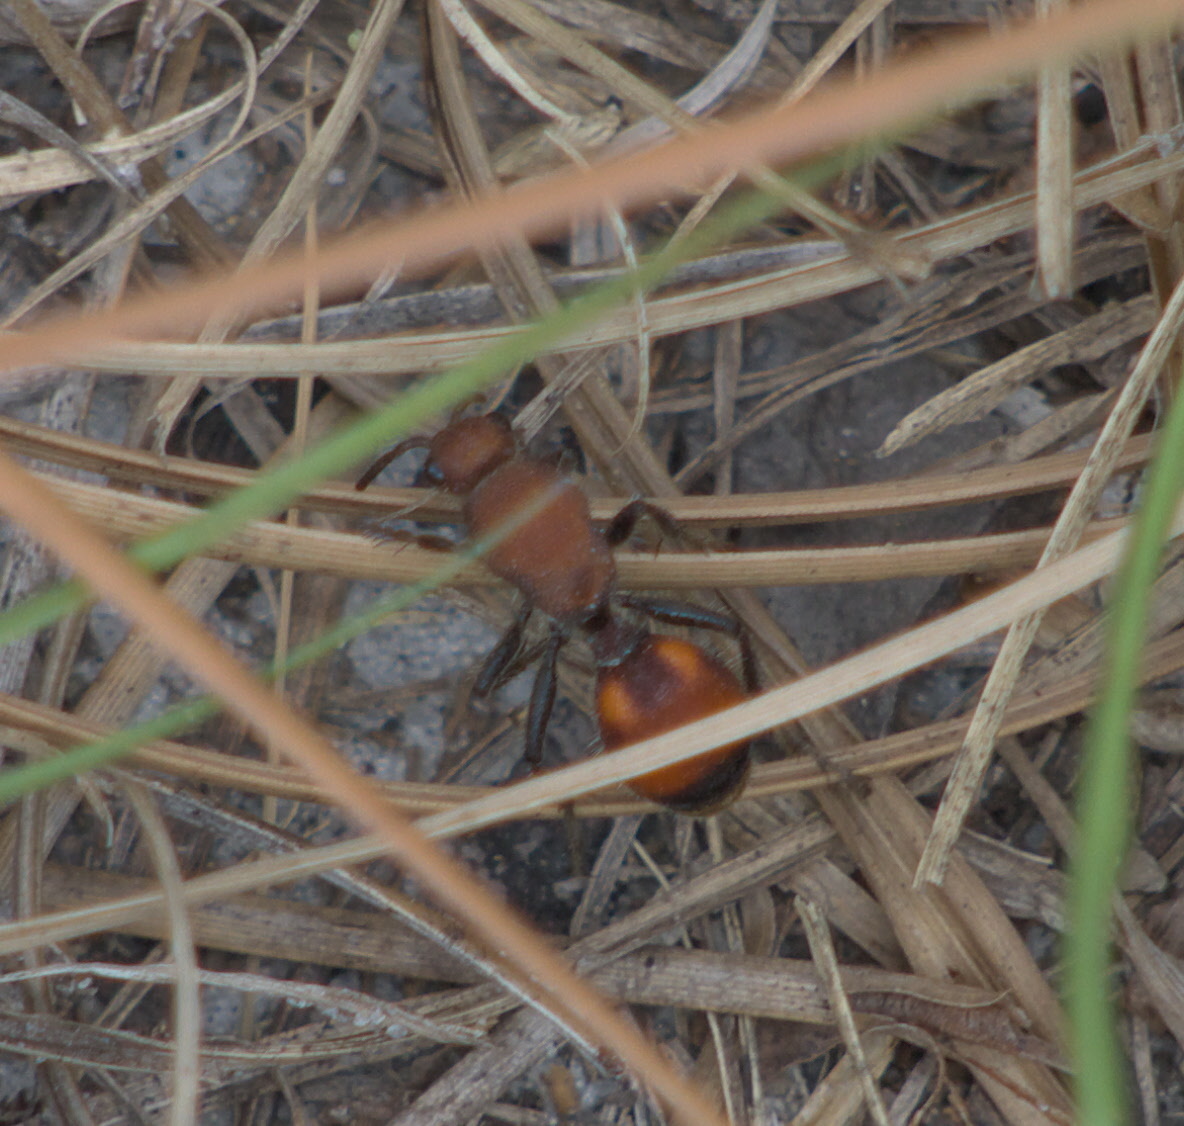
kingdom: Animalia
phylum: Arthropoda
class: Insecta
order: Hymenoptera
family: Mutillidae
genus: Dasymutilla
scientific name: Dasymutilla
